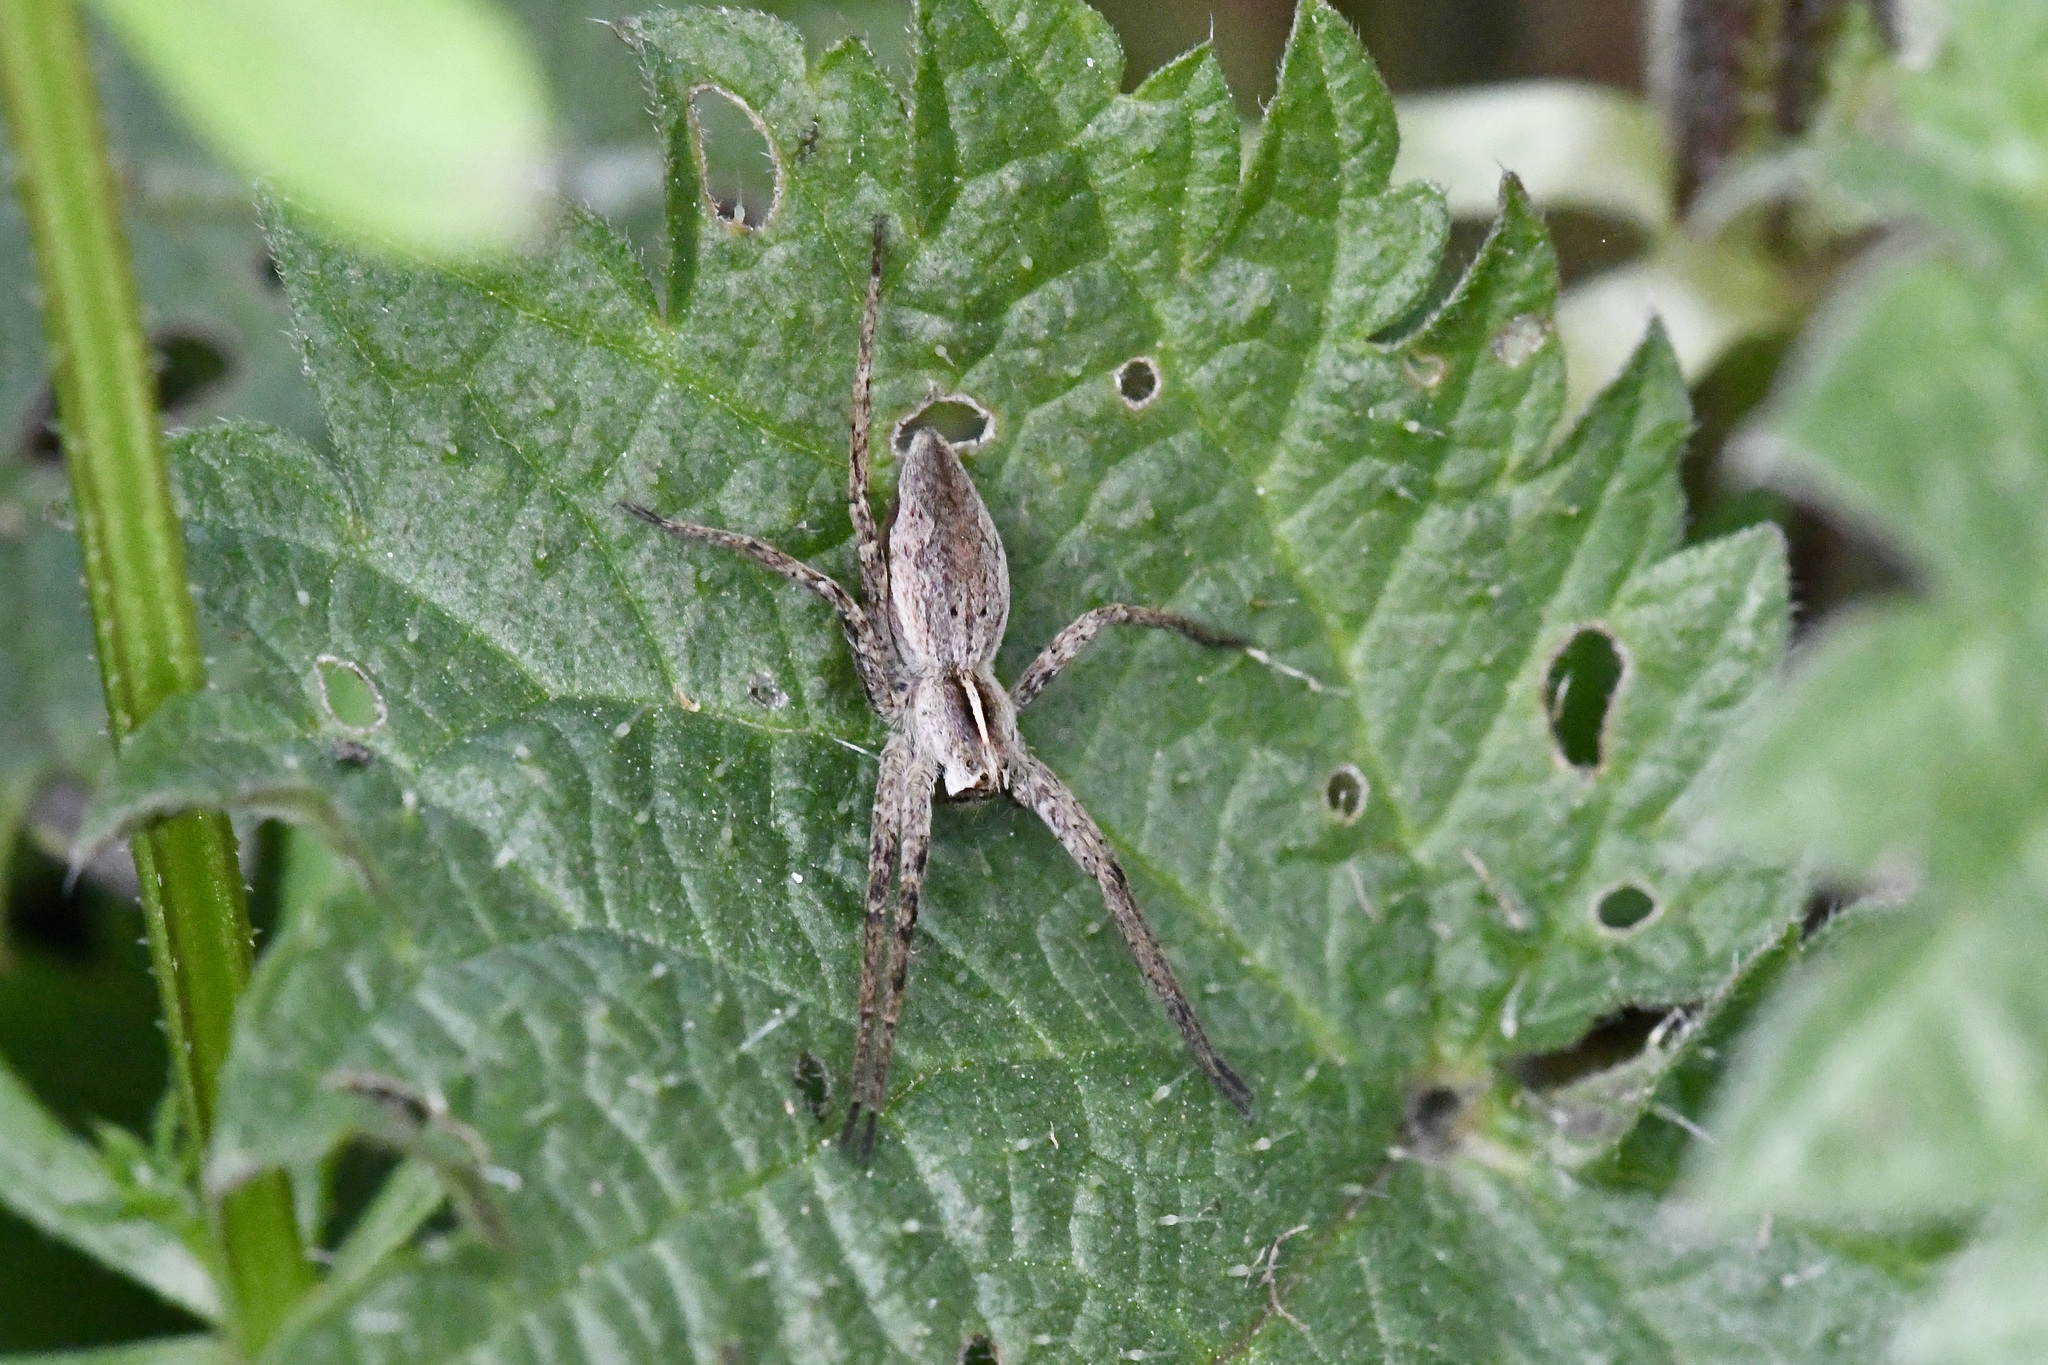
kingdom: Animalia
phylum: Arthropoda
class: Arachnida
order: Araneae
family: Pisauridae
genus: Pisaura
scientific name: Pisaura mirabilis
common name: Tent spider
